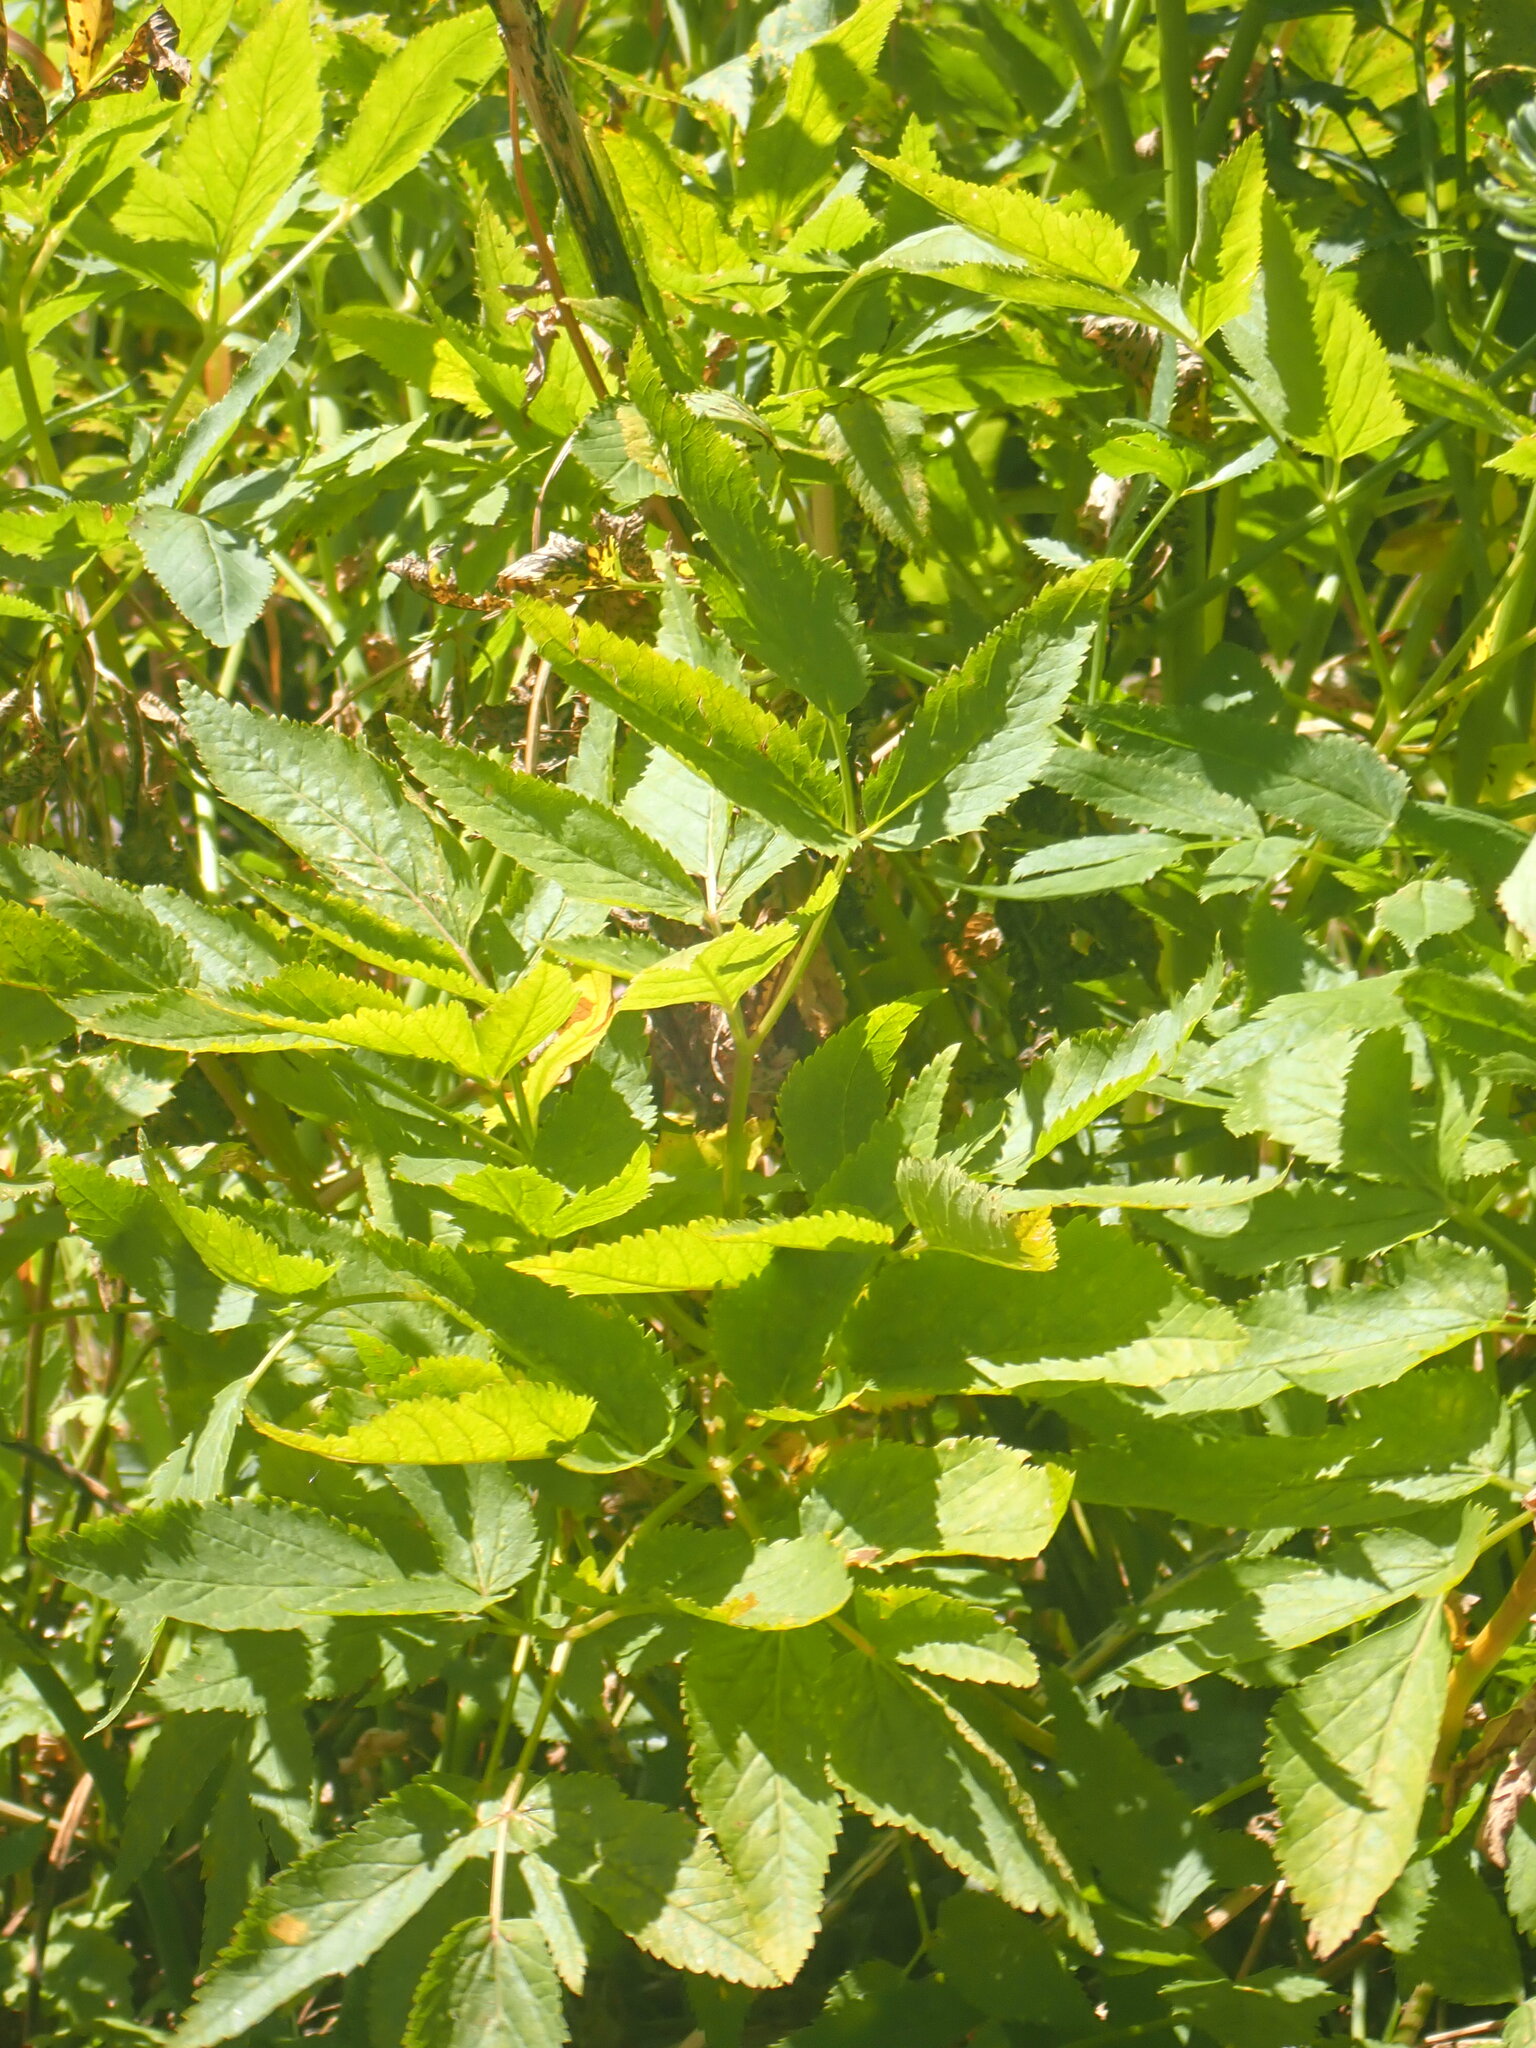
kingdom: Plantae
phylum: Tracheophyta
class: Magnoliopsida
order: Apiales
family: Apiaceae
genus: Angelica
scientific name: Angelica arguta
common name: Lyall's angelica
